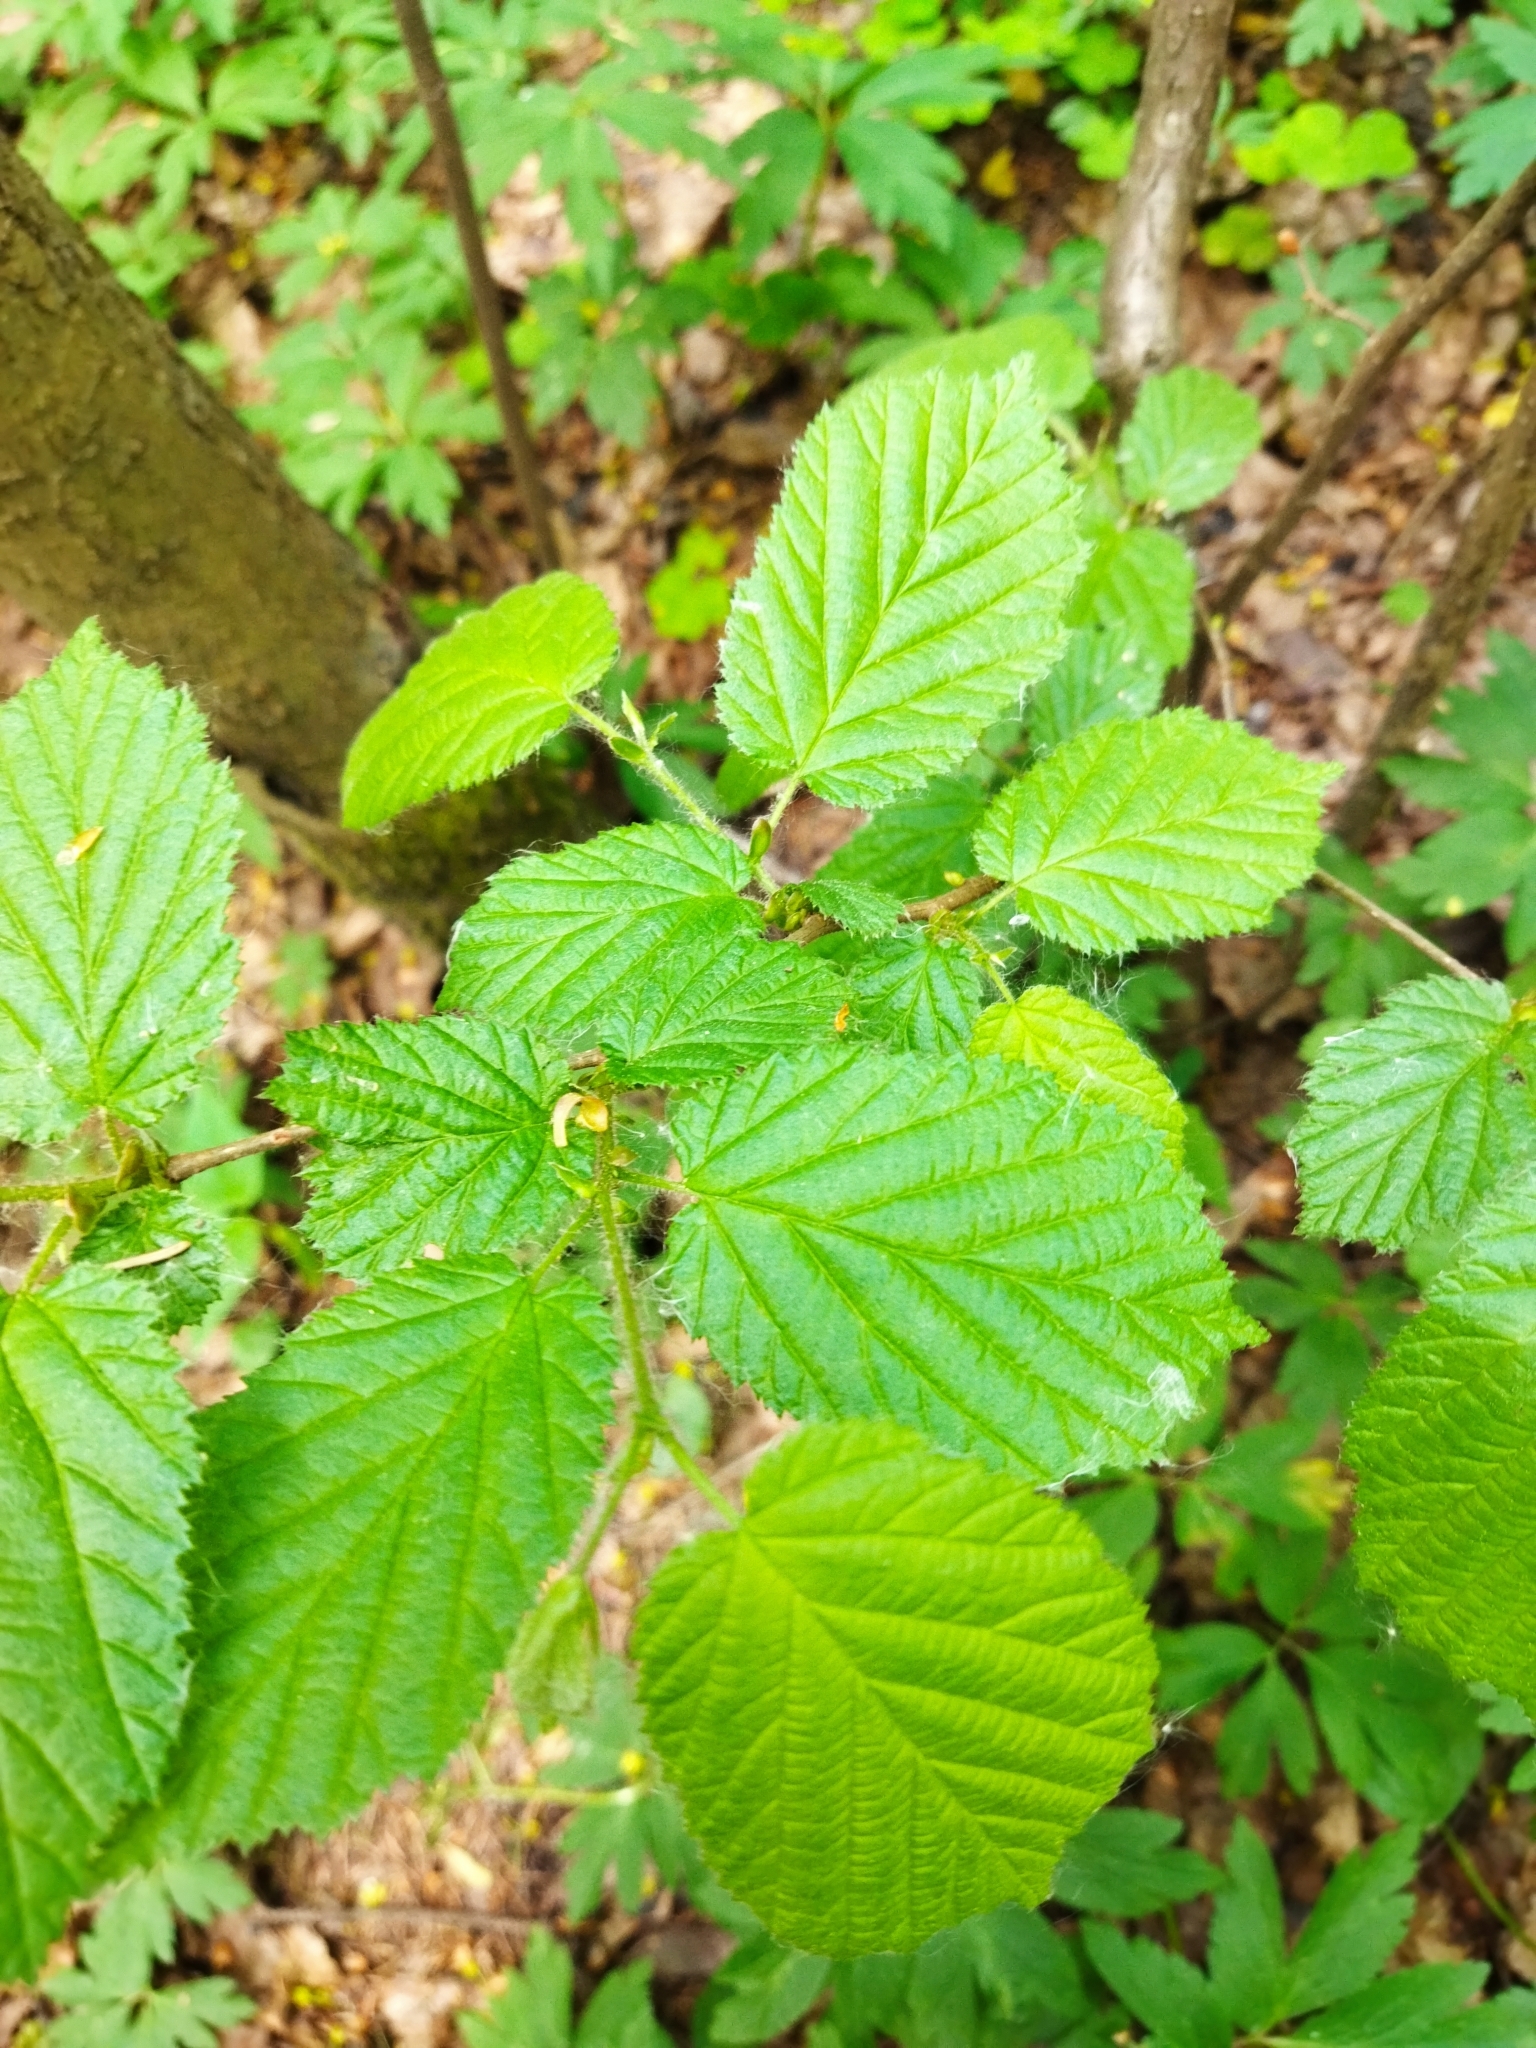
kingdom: Plantae
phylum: Tracheophyta
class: Magnoliopsida
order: Fagales
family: Betulaceae
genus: Corylus
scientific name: Corylus avellana
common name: European hazel
